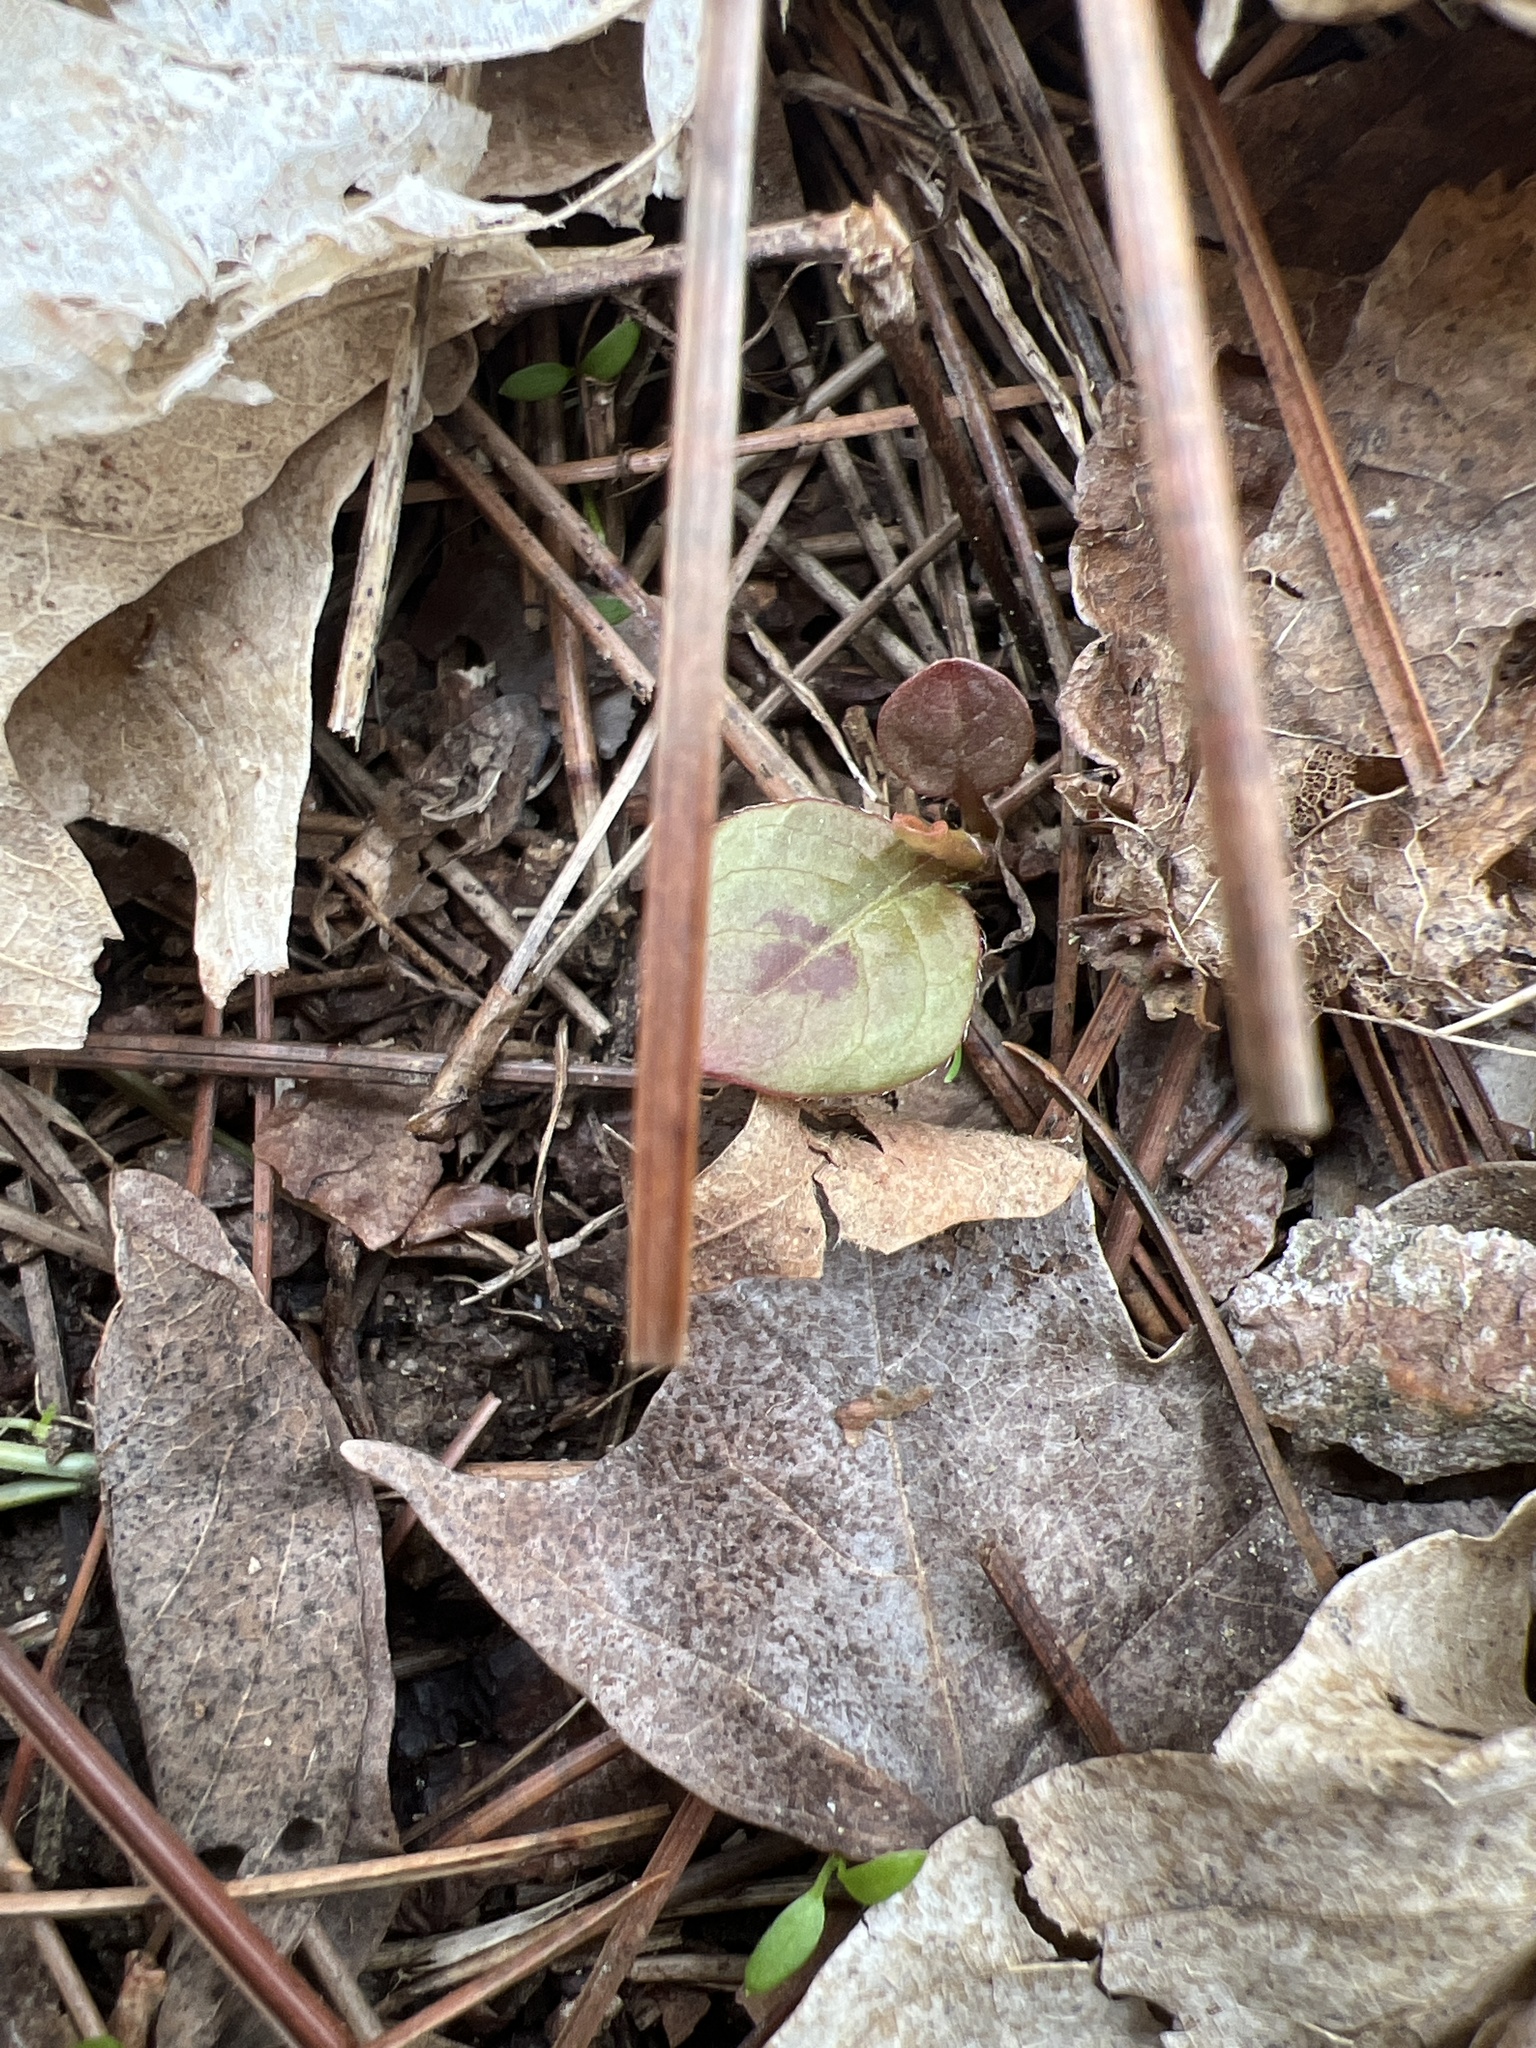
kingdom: Plantae
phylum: Tracheophyta
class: Magnoliopsida
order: Caryophyllales
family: Polygonaceae
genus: Persicaria
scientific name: Persicaria virginiana
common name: Jumpseed
